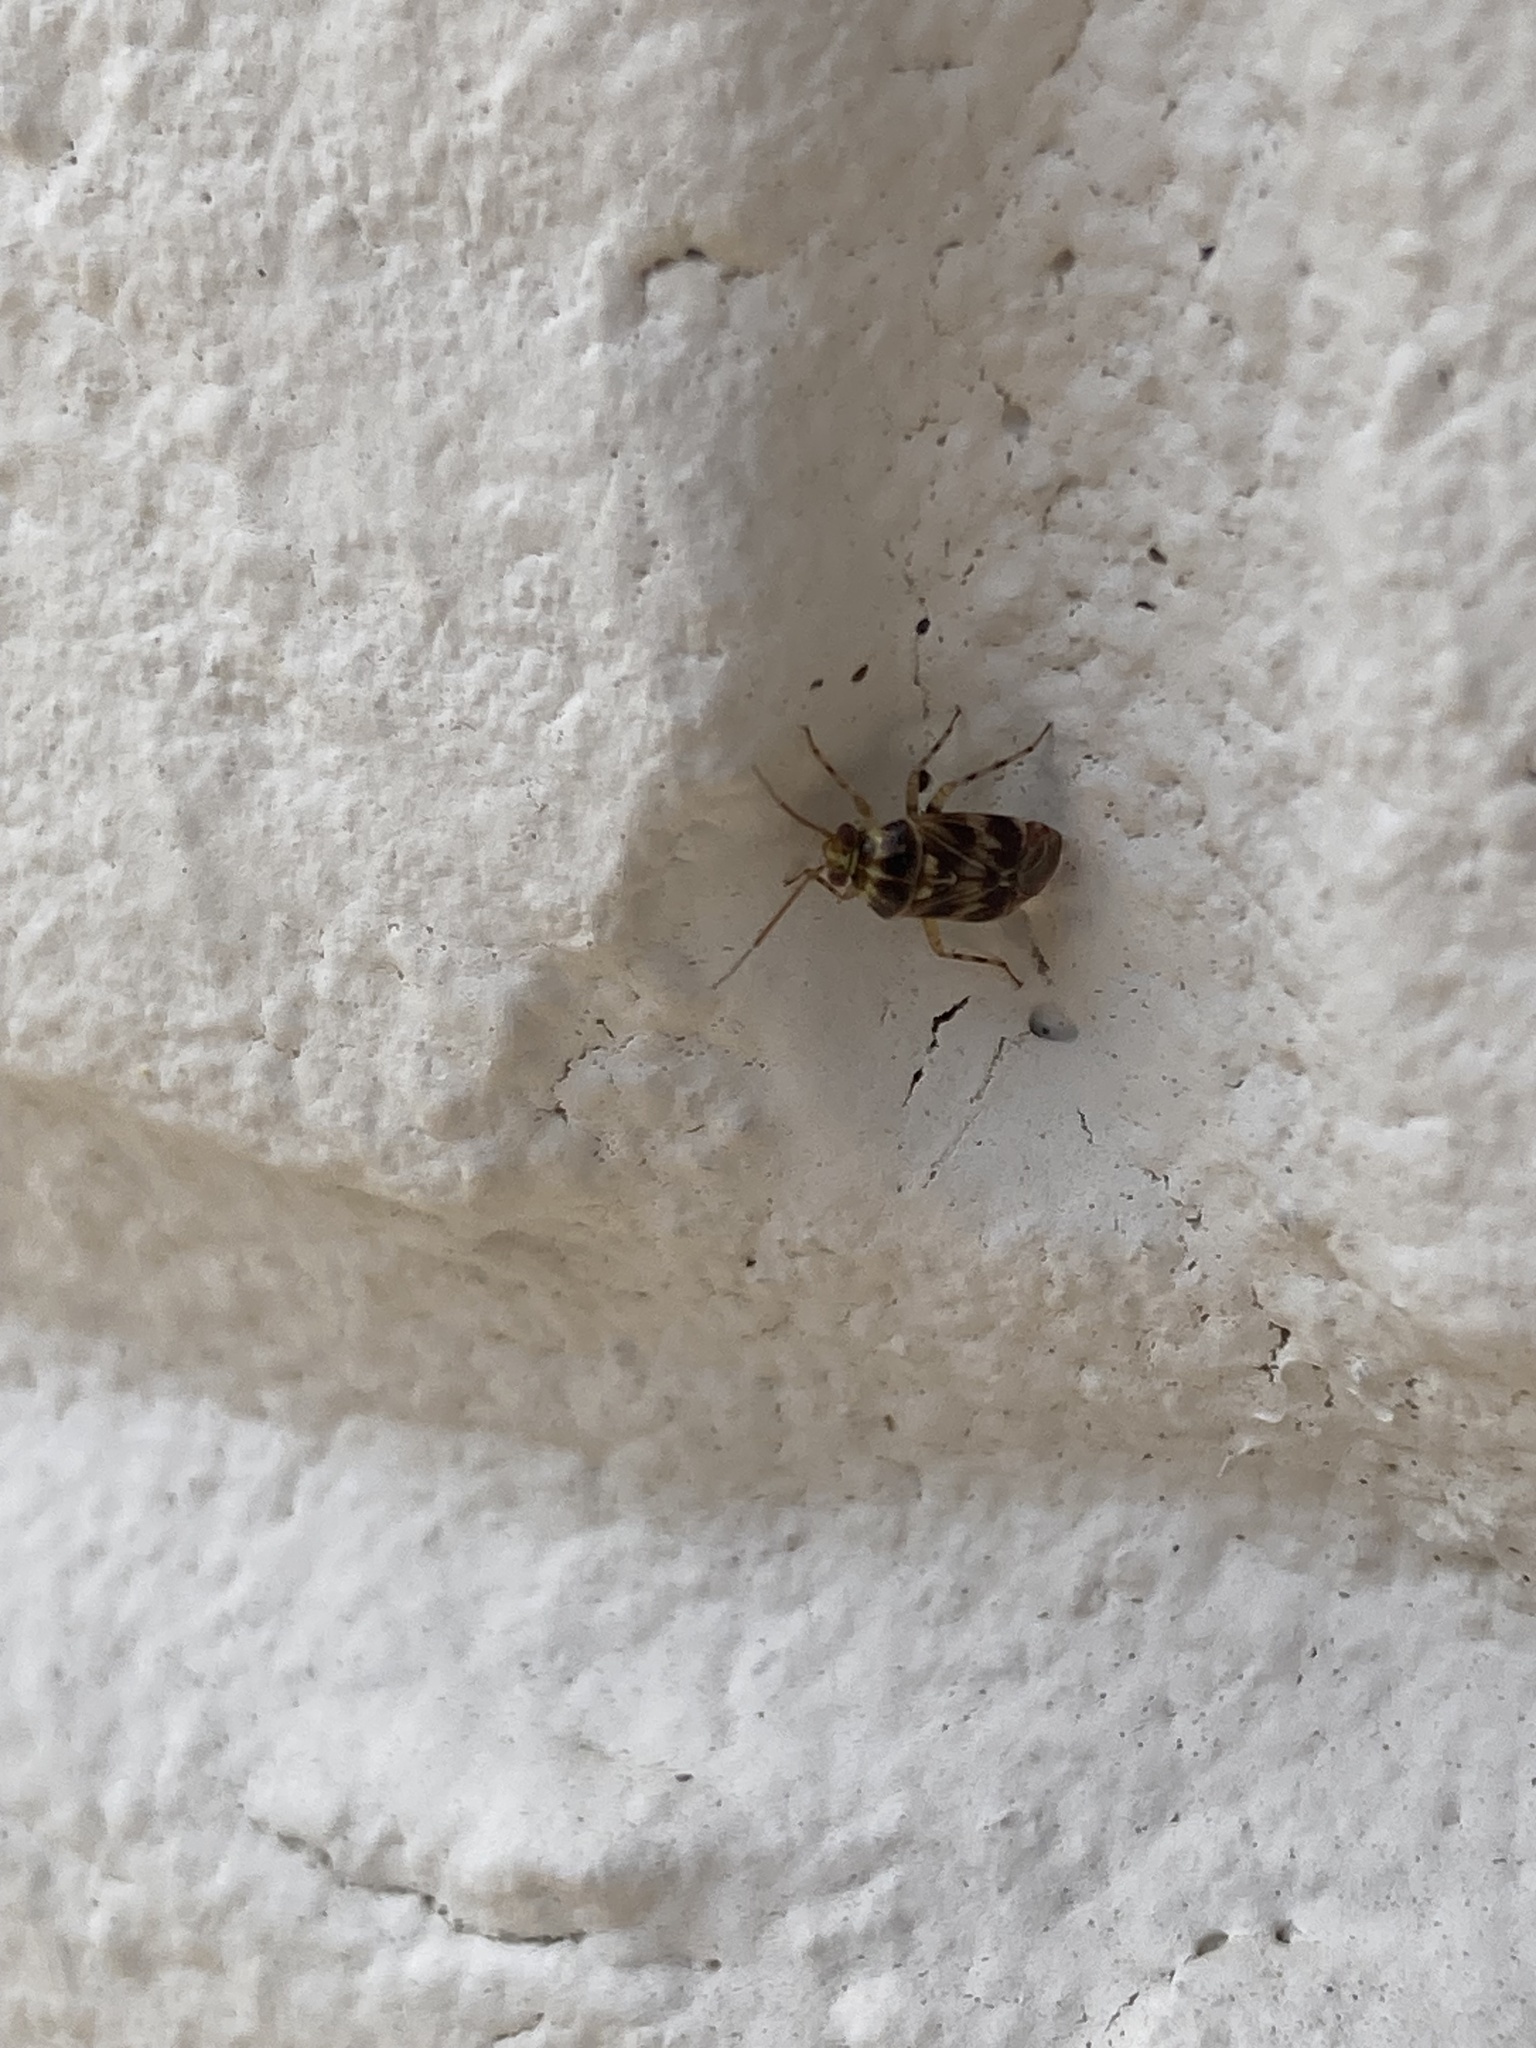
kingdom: Animalia
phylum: Arthropoda
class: Insecta
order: Hemiptera
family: Miridae
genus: Tropidosteptes
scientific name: Tropidosteptes quercicola
